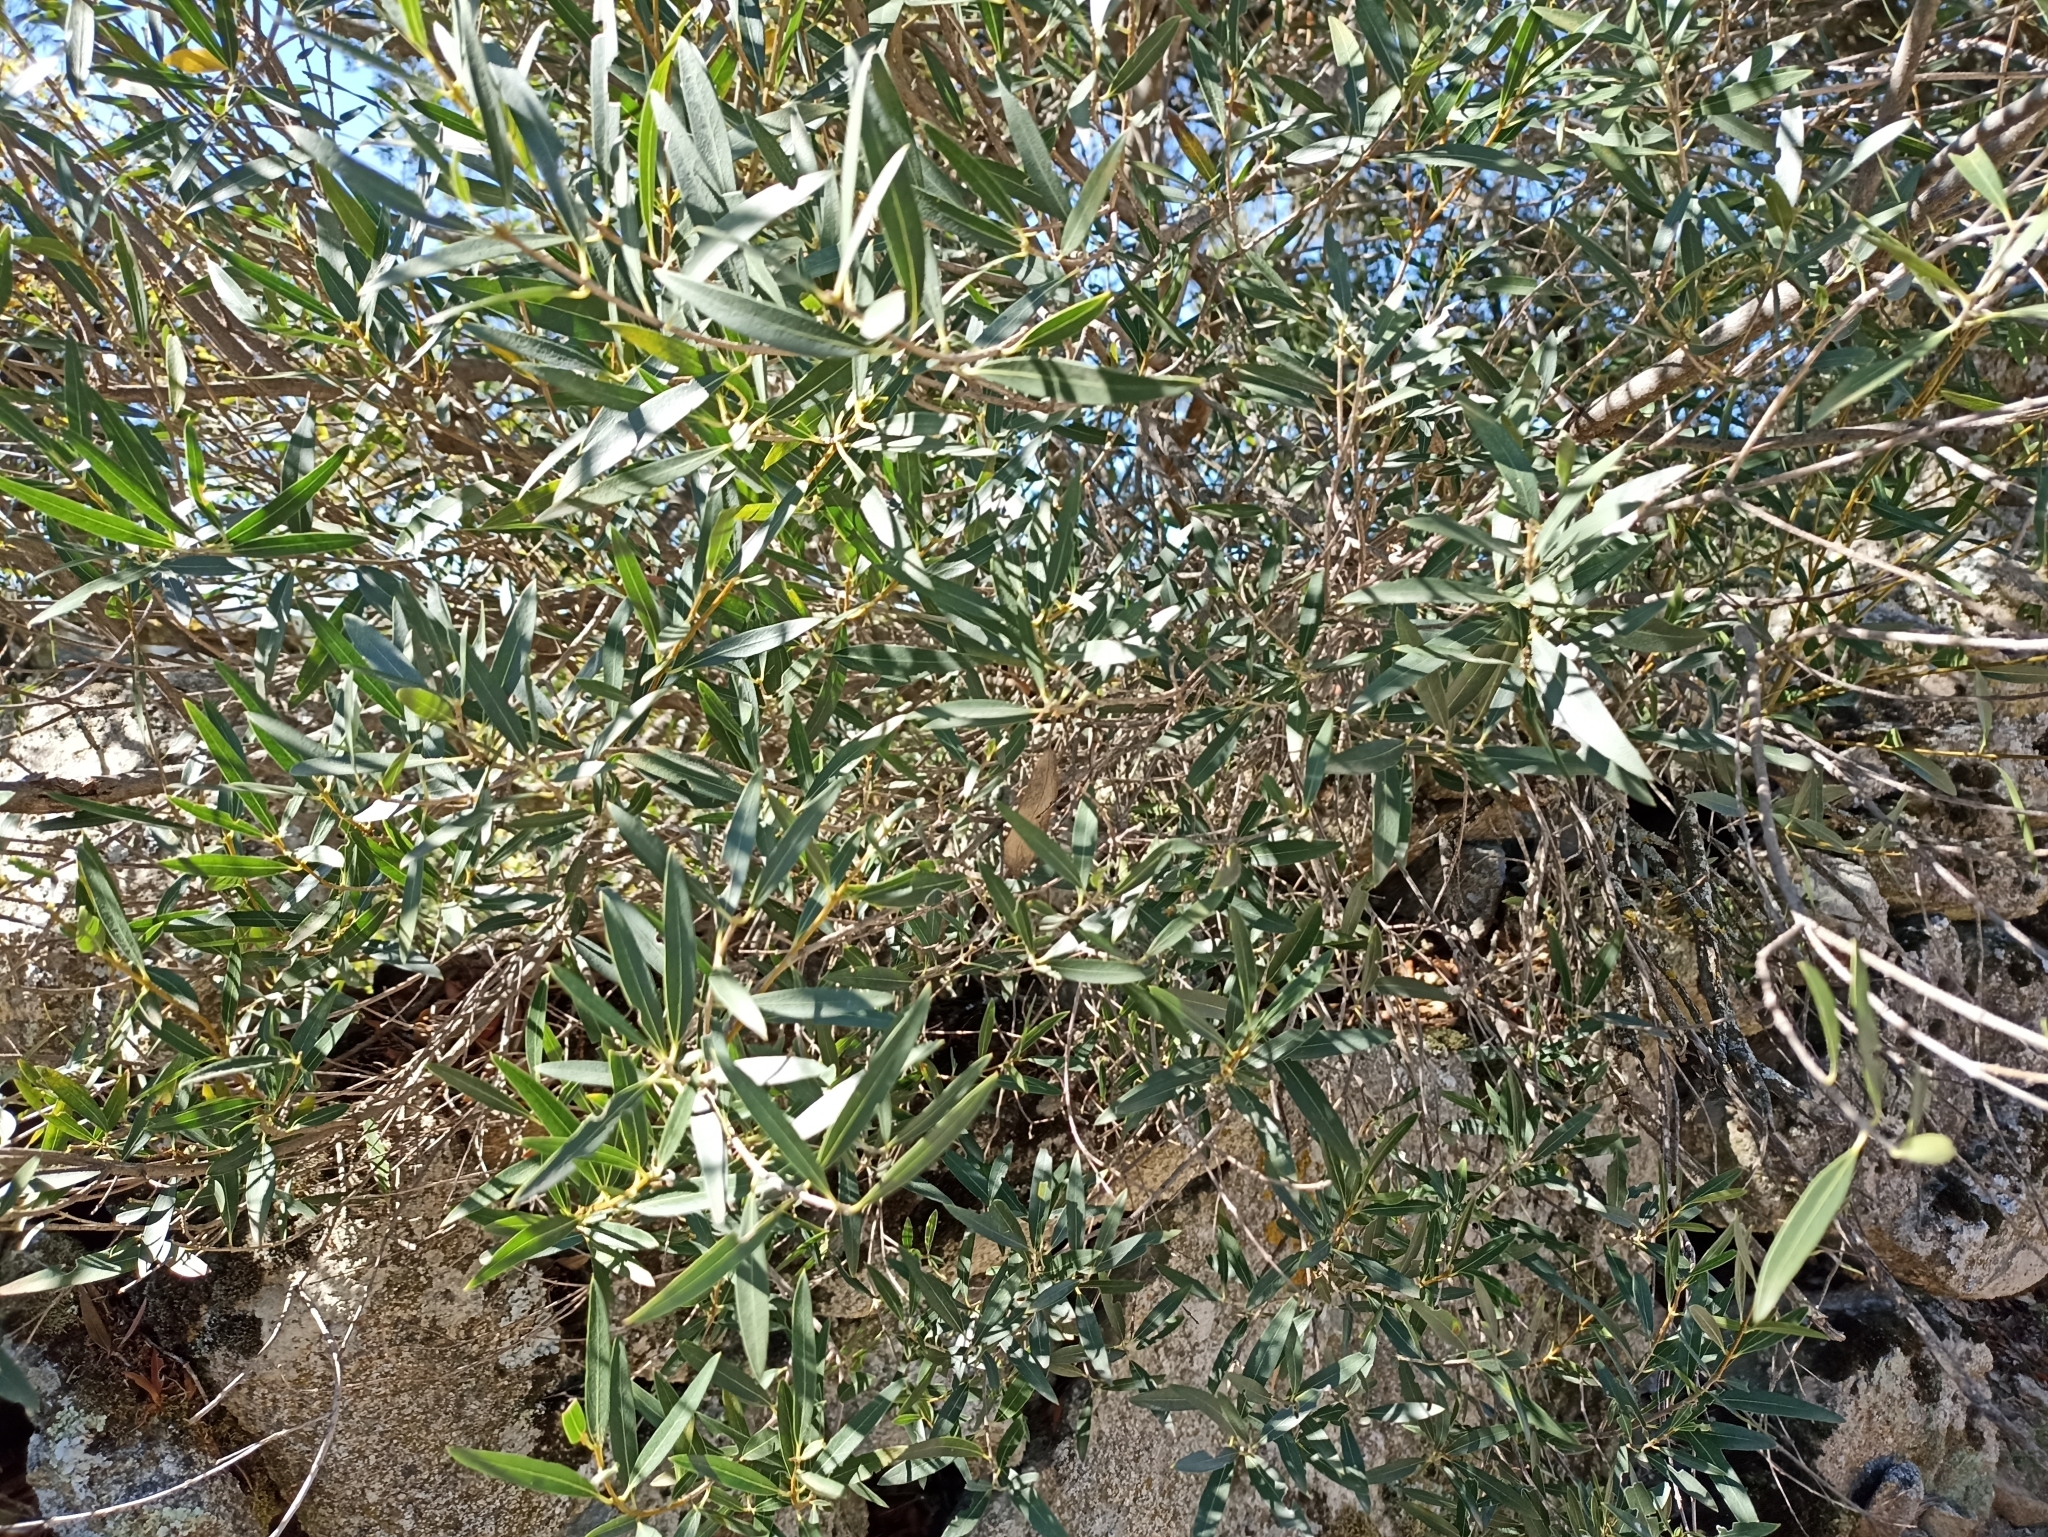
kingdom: Plantae
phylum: Tracheophyta
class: Magnoliopsida
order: Lamiales
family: Oleaceae
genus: Phillyrea
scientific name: Phillyrea angustifolia
